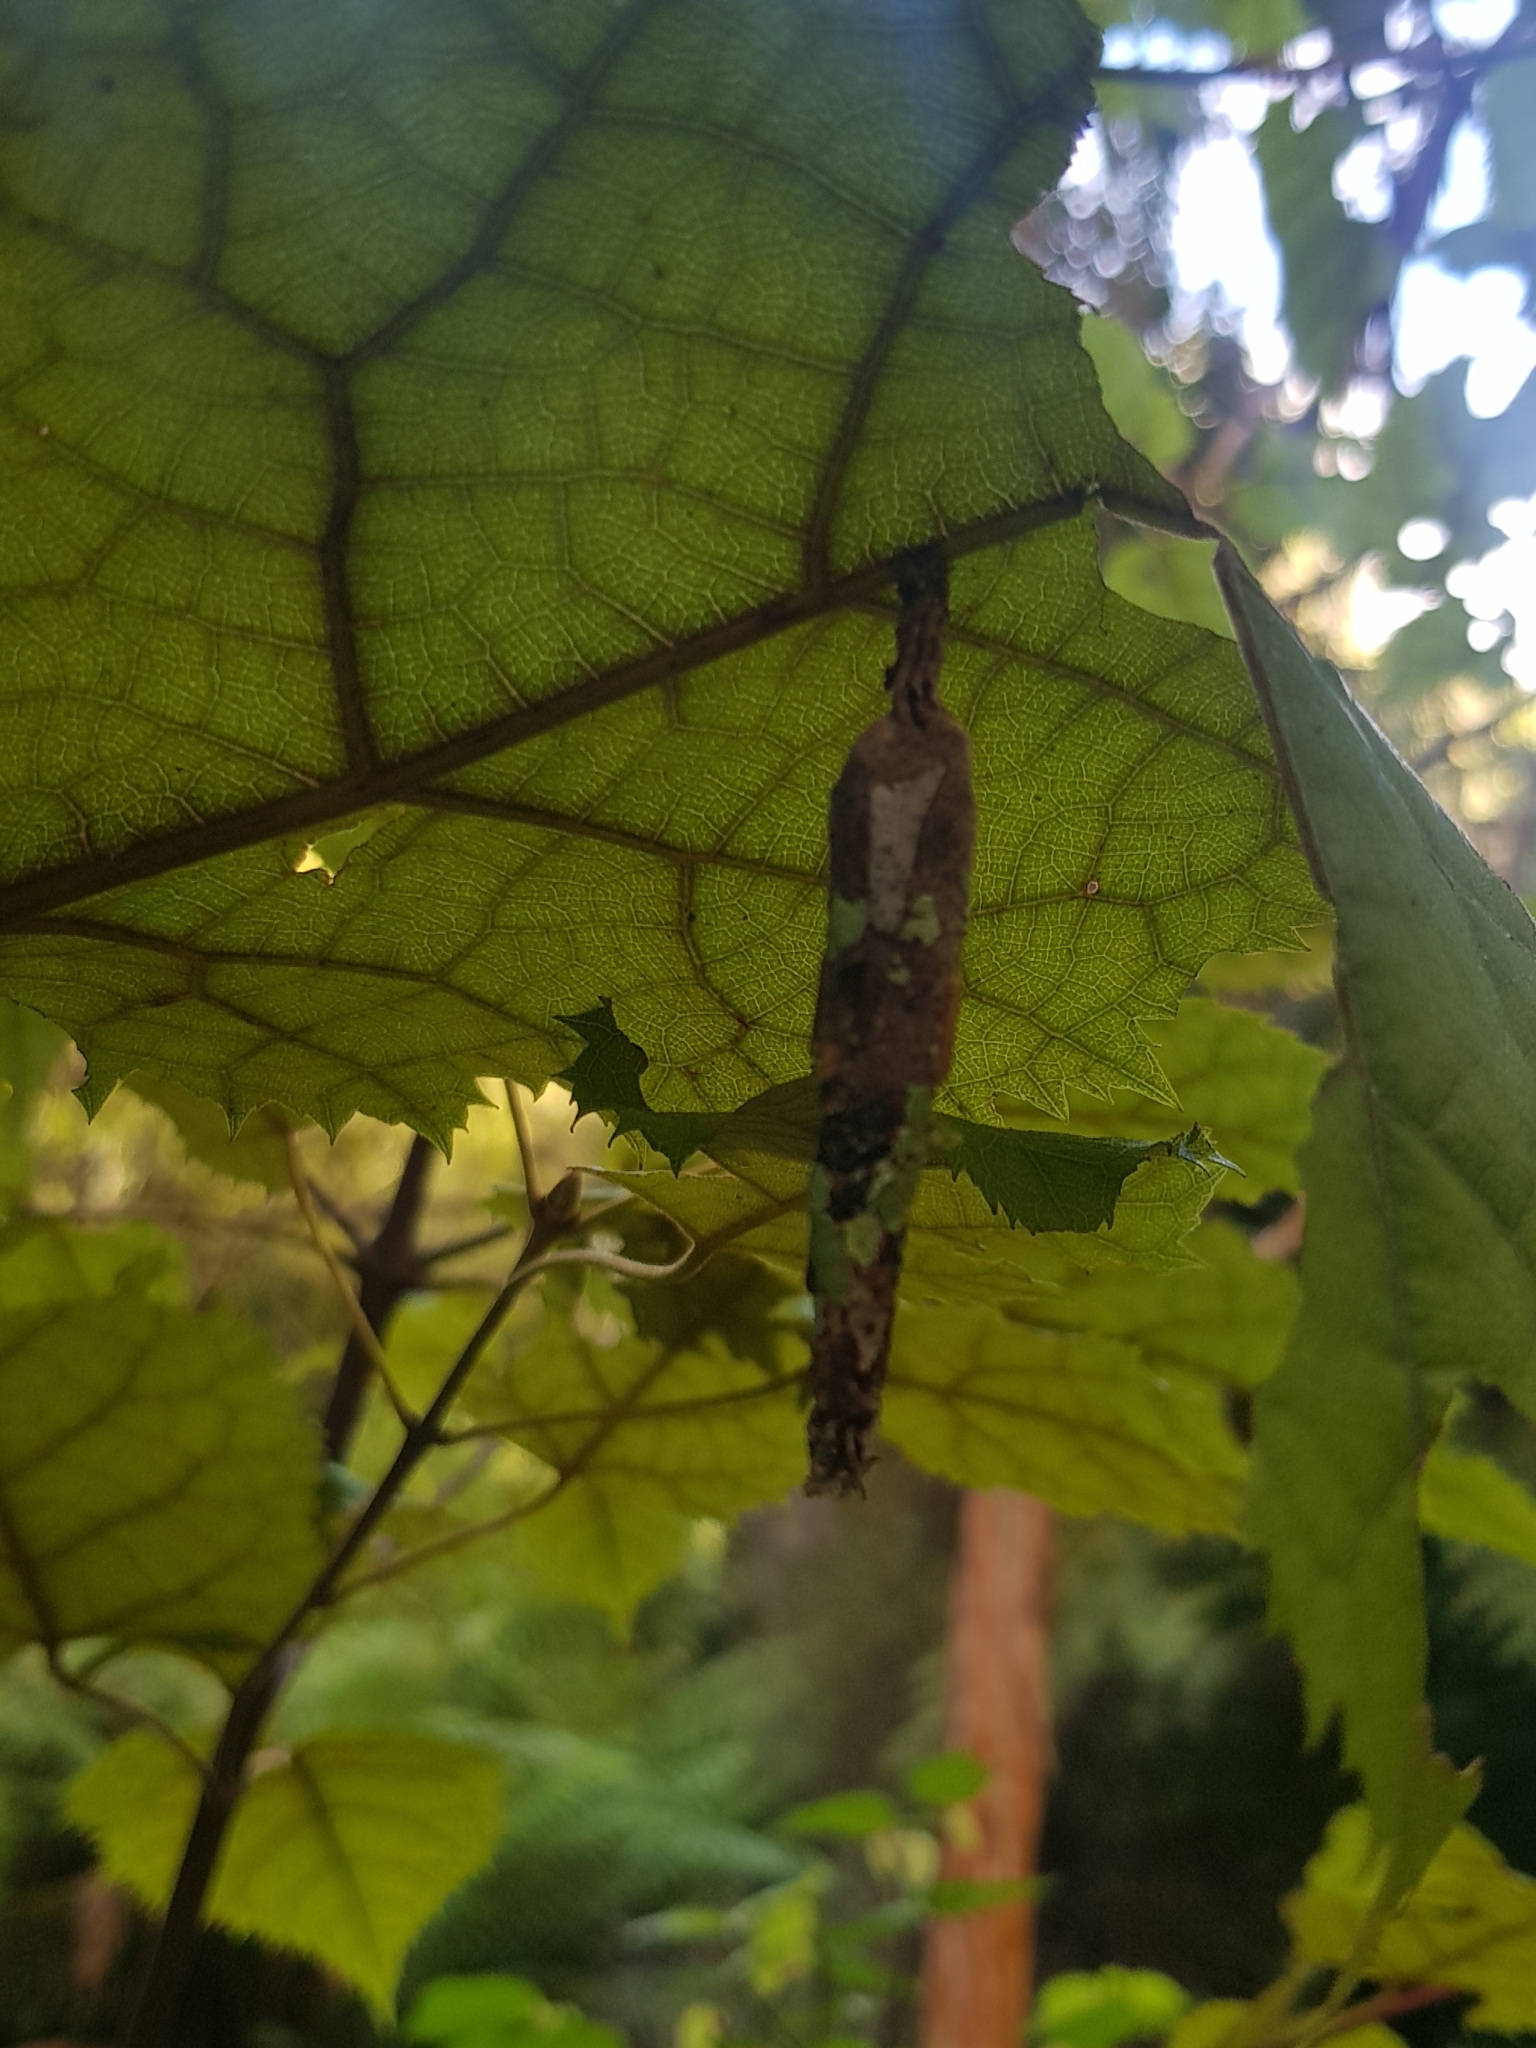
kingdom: Animalia
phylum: Arthropoda
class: Insecta
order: Lepidoptera
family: Psychidae
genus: Liothula
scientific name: Liothula omnivora
